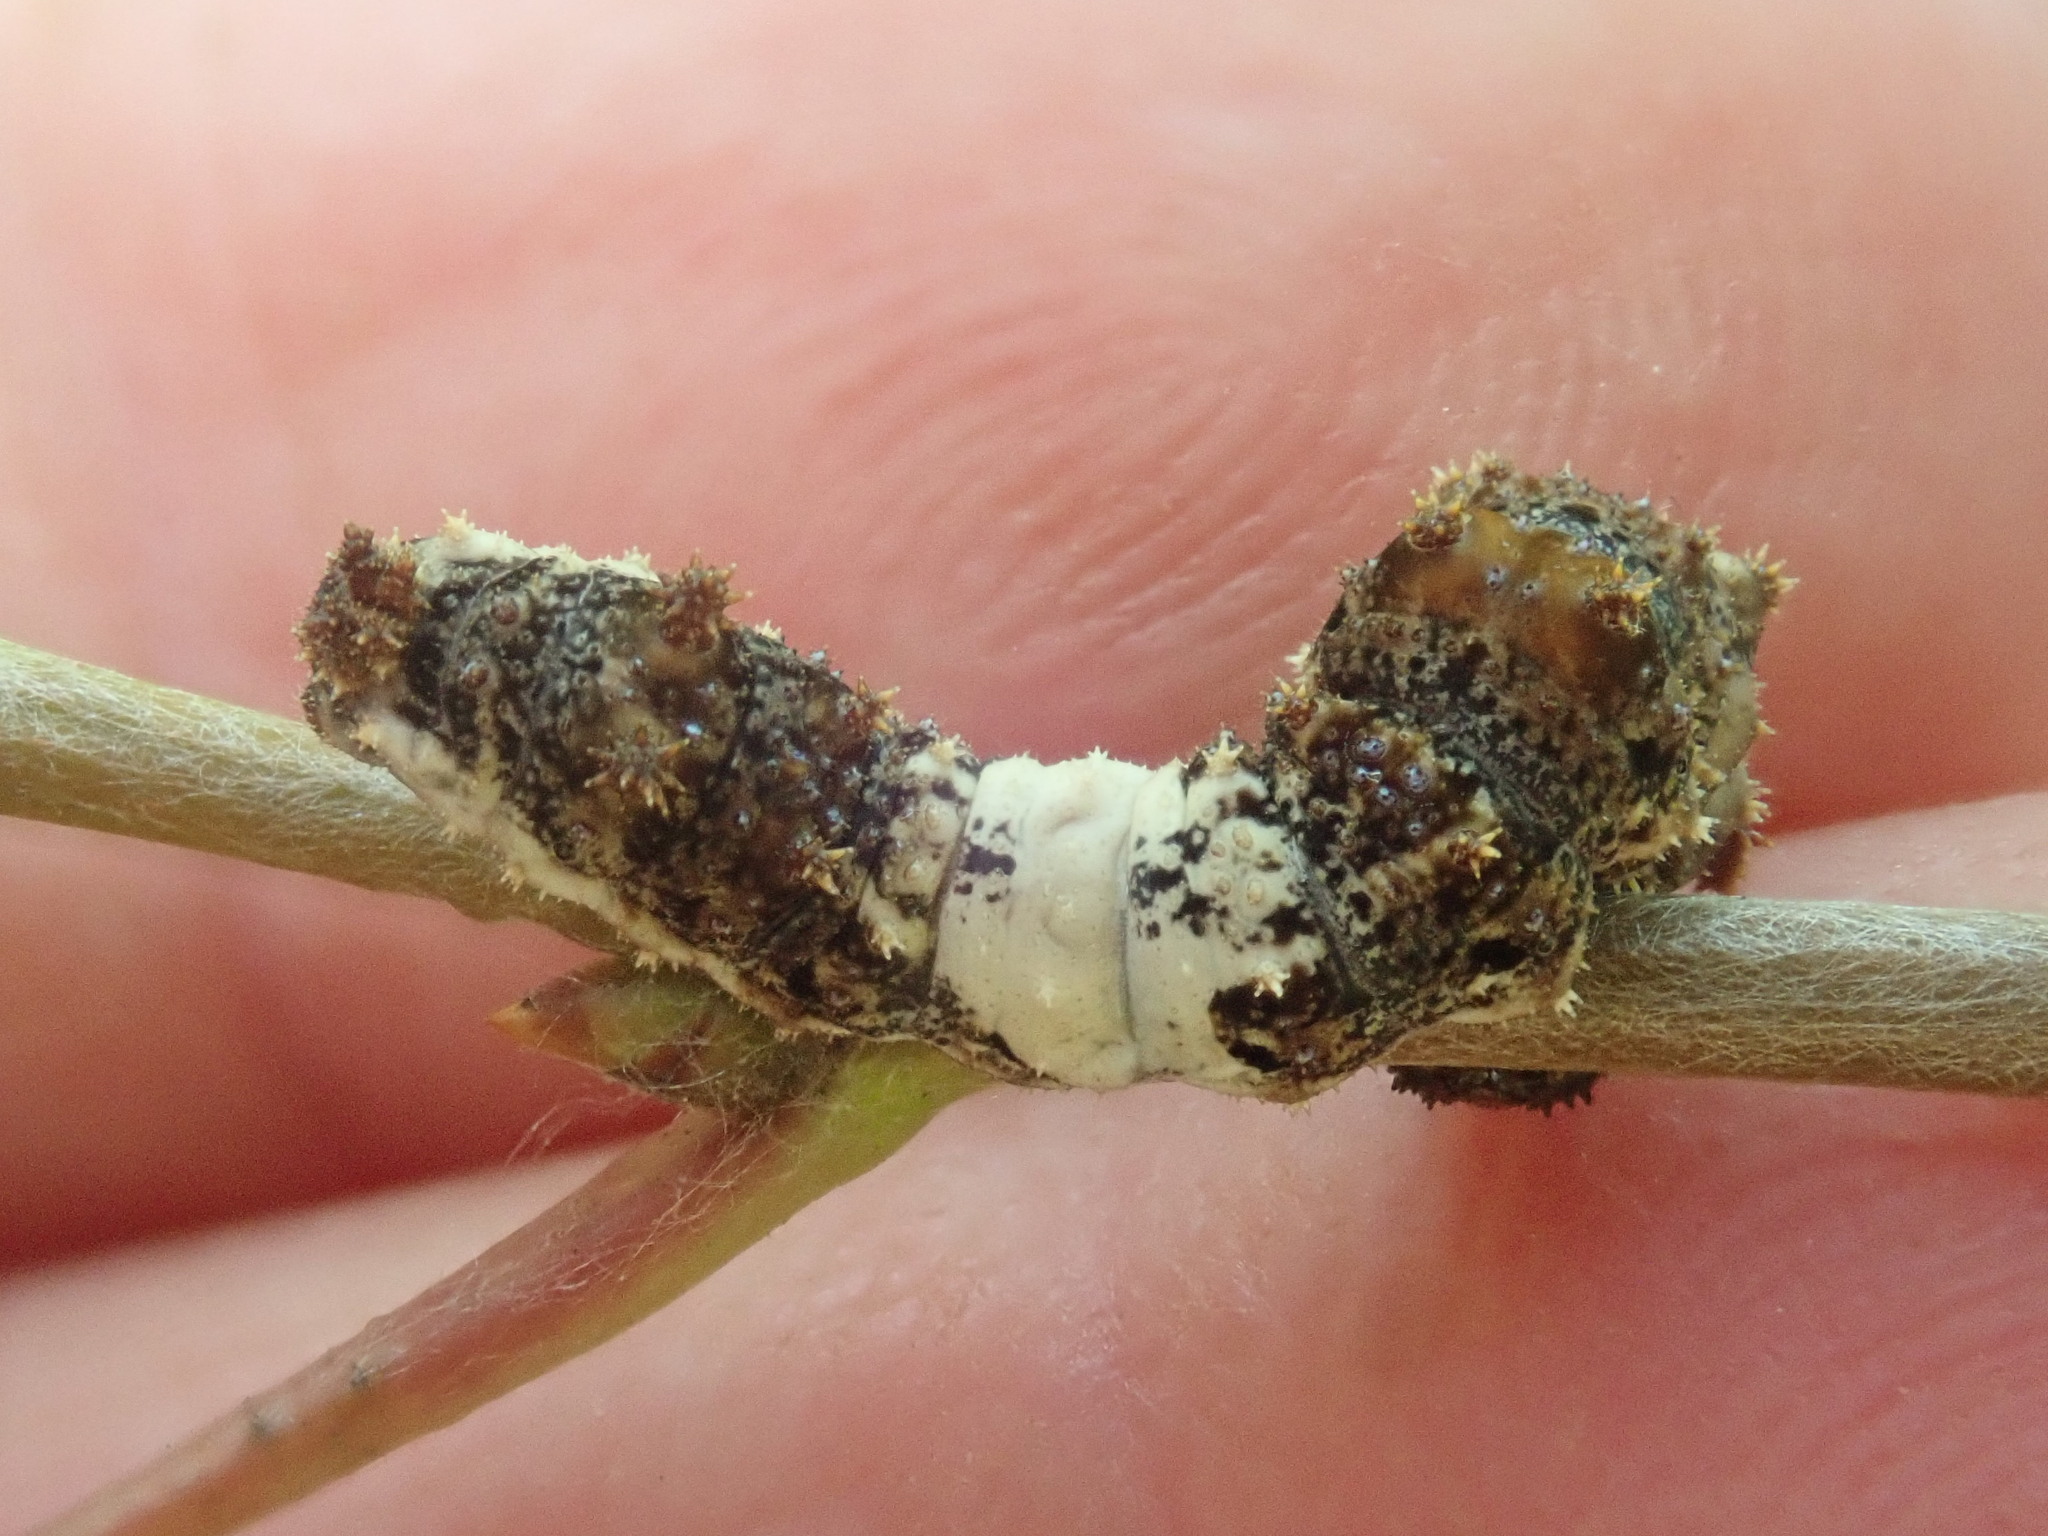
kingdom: Animalia
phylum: Arthropoda
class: Insecta
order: Lepidoptera
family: Nymphalidae
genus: Limenitis
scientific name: Limenitis archippus
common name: Viceroy
